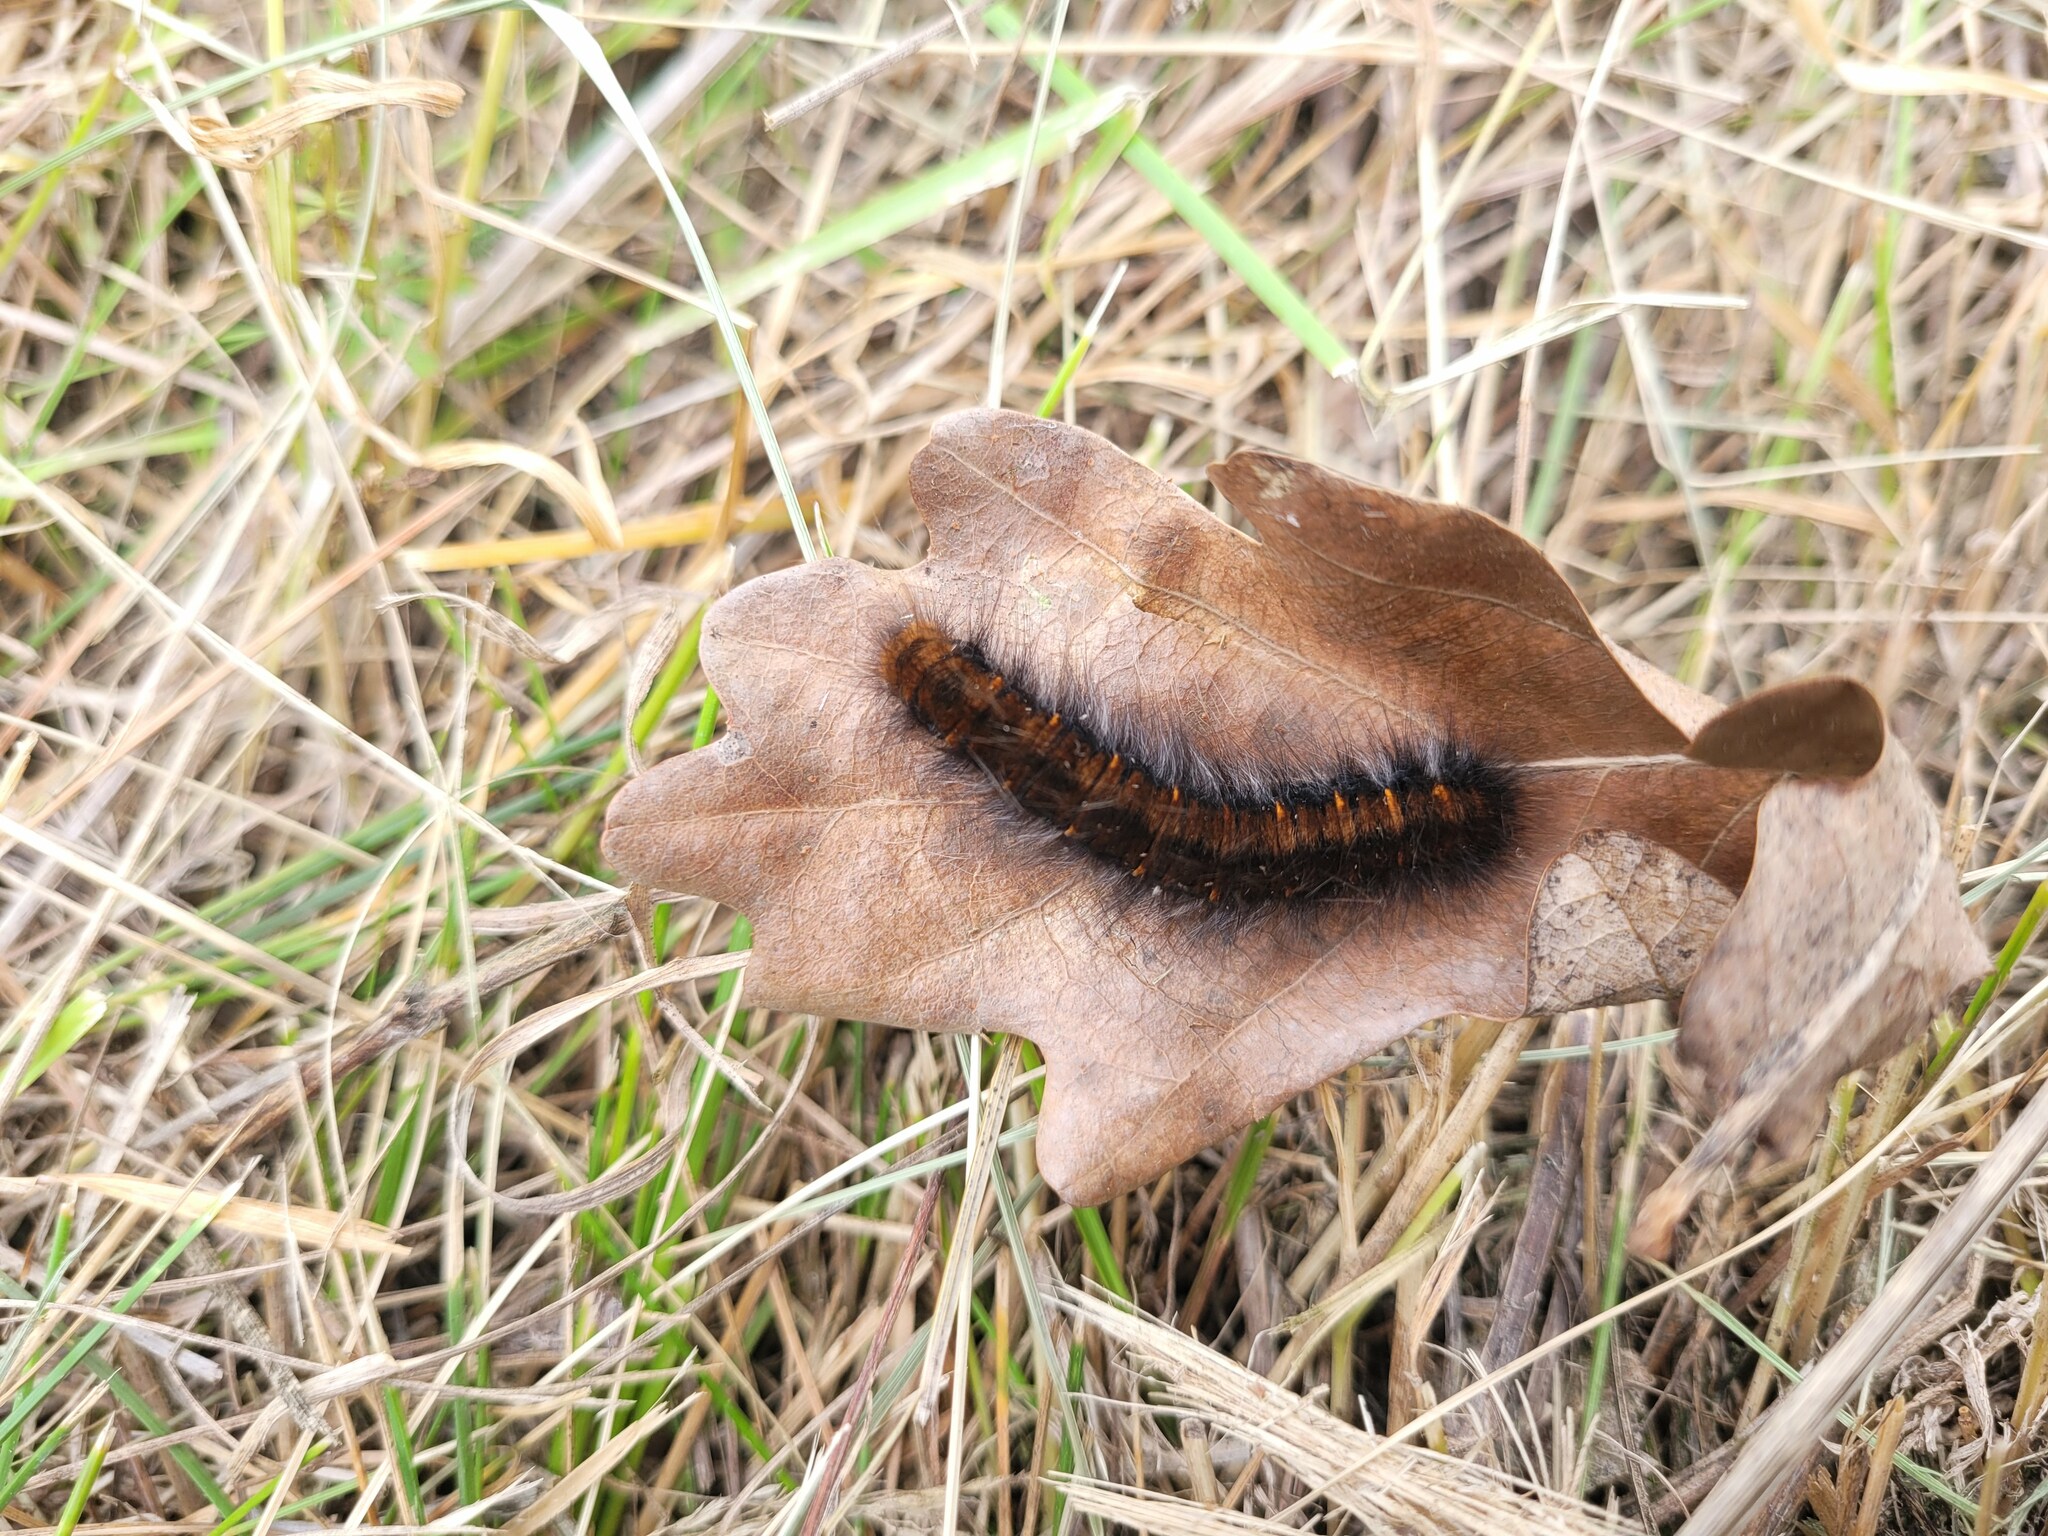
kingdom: Animalia
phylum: Arthropoda
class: Insecta
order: Lepidoptera
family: Lasiocampidae
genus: Macrothylacia
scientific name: Macrothylacia rubi
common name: Fox moth
